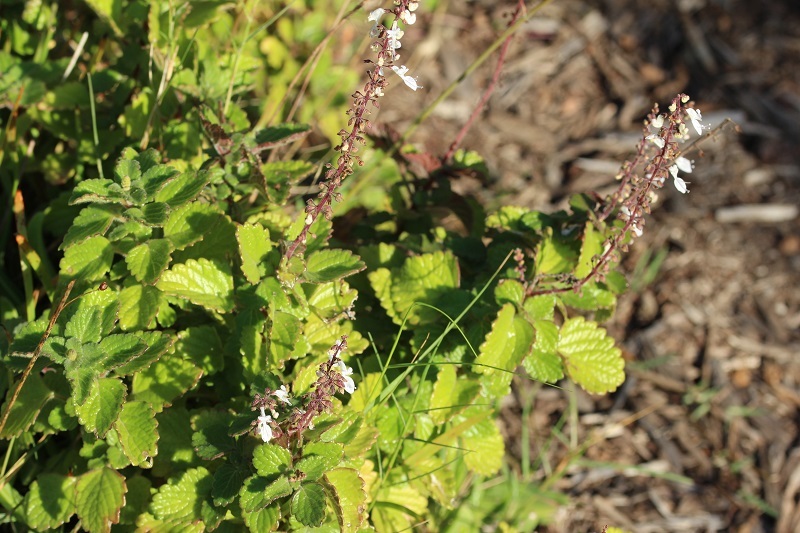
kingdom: Plantae
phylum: Tracheophyta
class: Magnoliopsida
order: Lamiales
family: Lamiaceae
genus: Coleus
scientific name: Coleus madagascariensis
